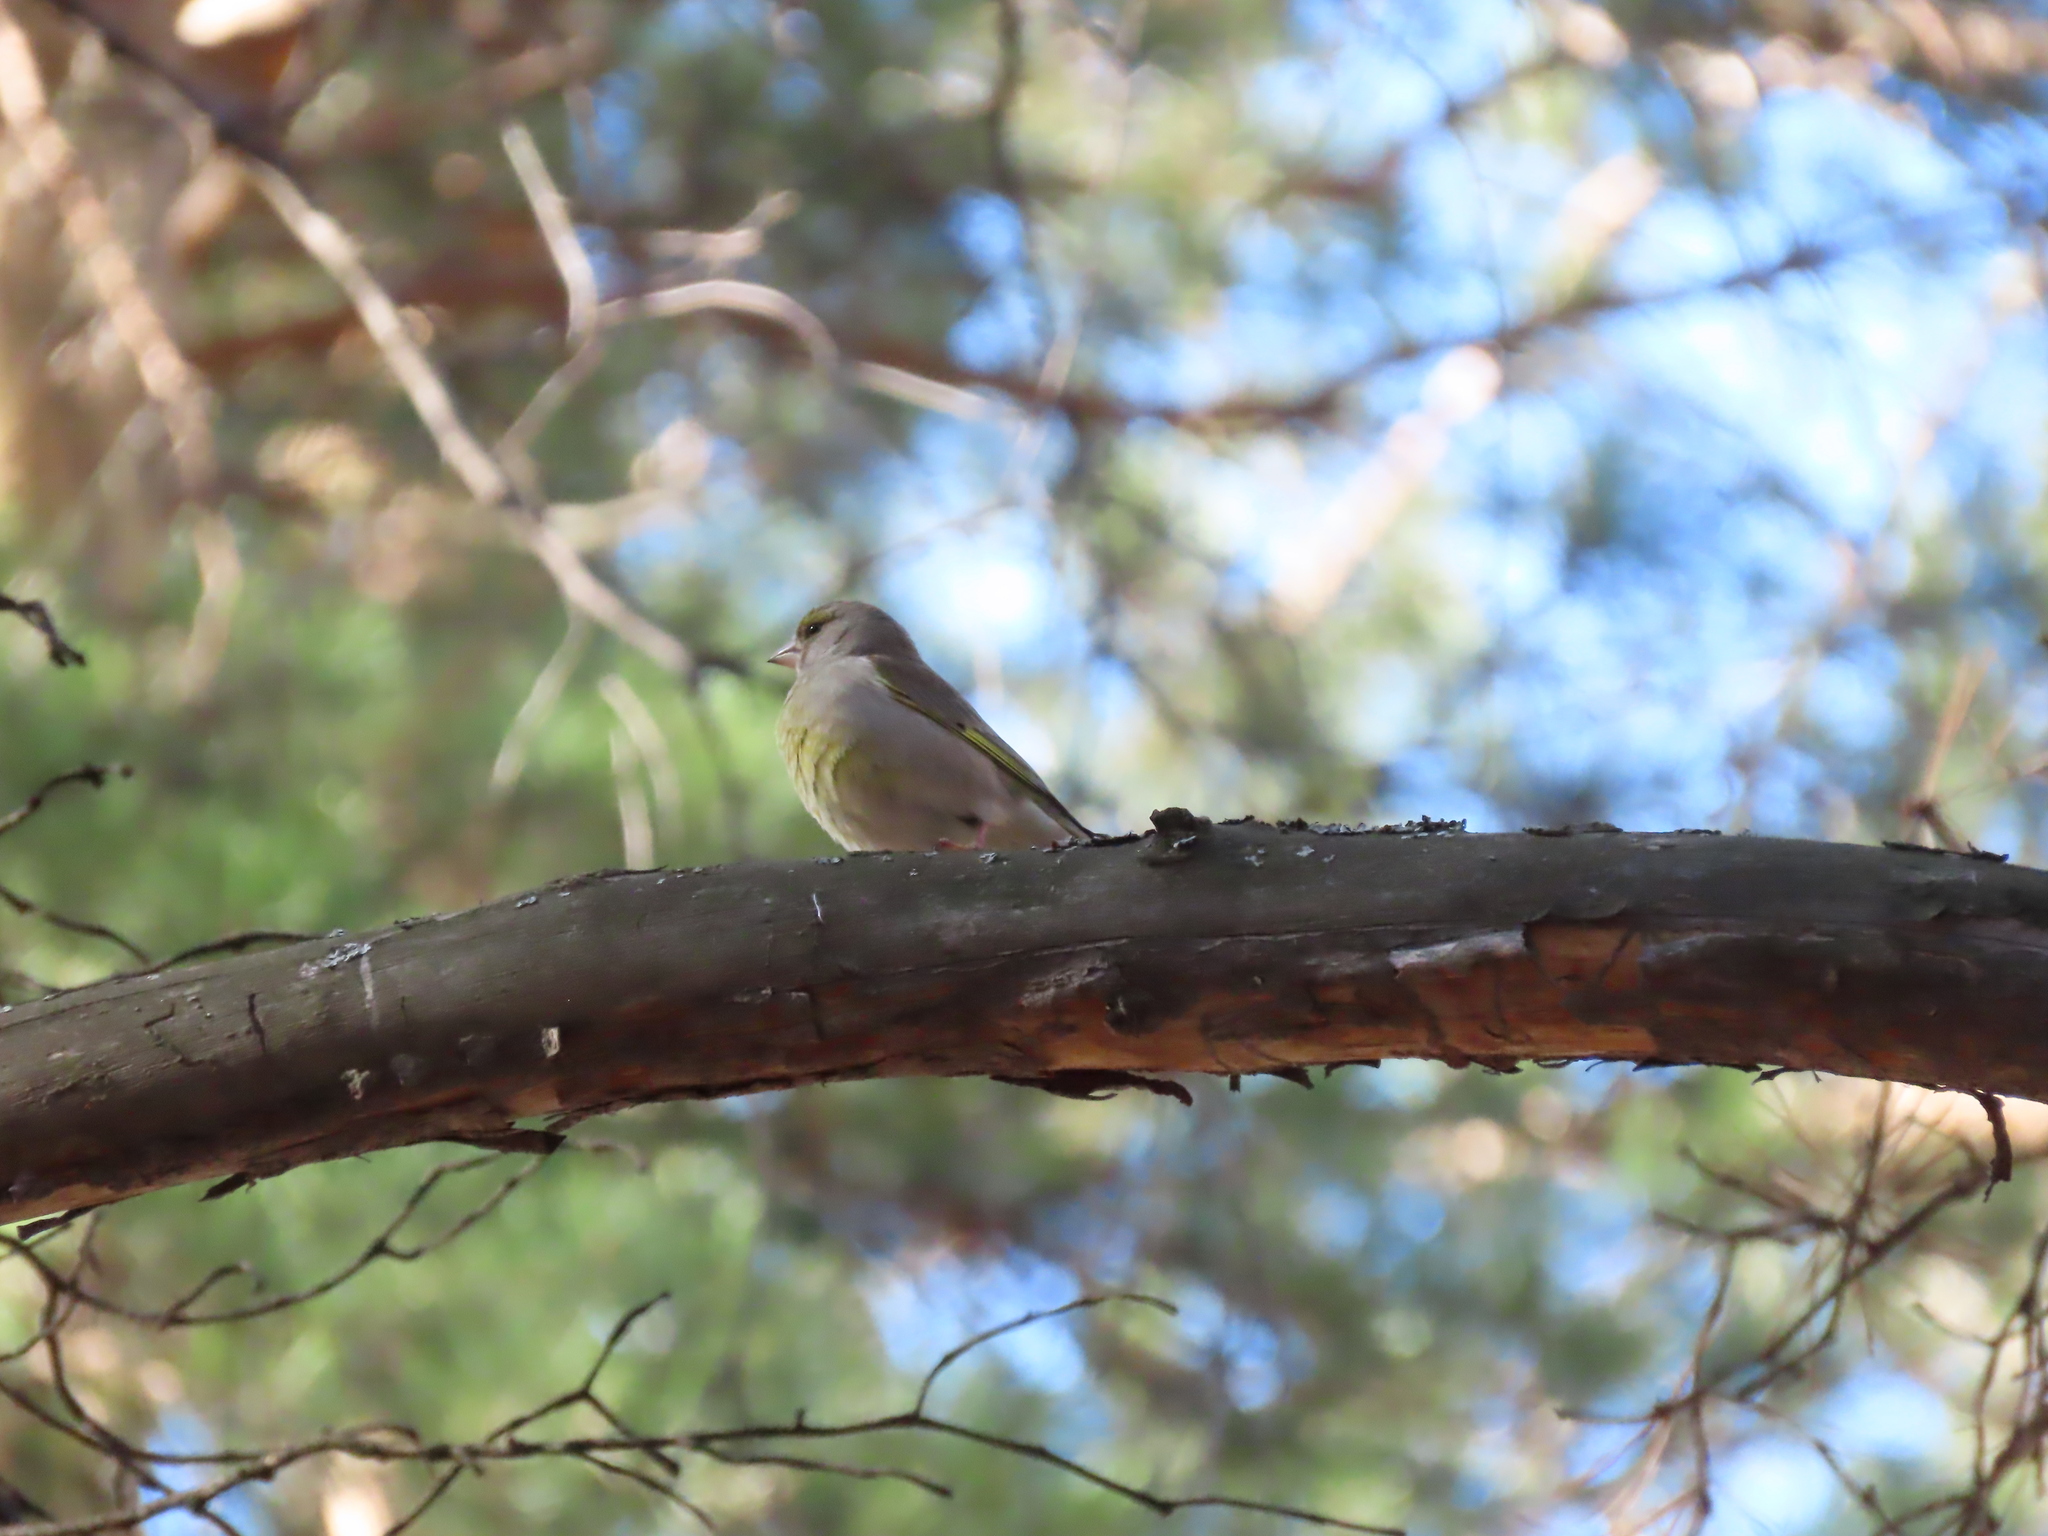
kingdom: Plantae
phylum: Tracheophyta
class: Liliopsida
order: Poales
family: Poaceae
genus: Chloris
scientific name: Chloris chloris
